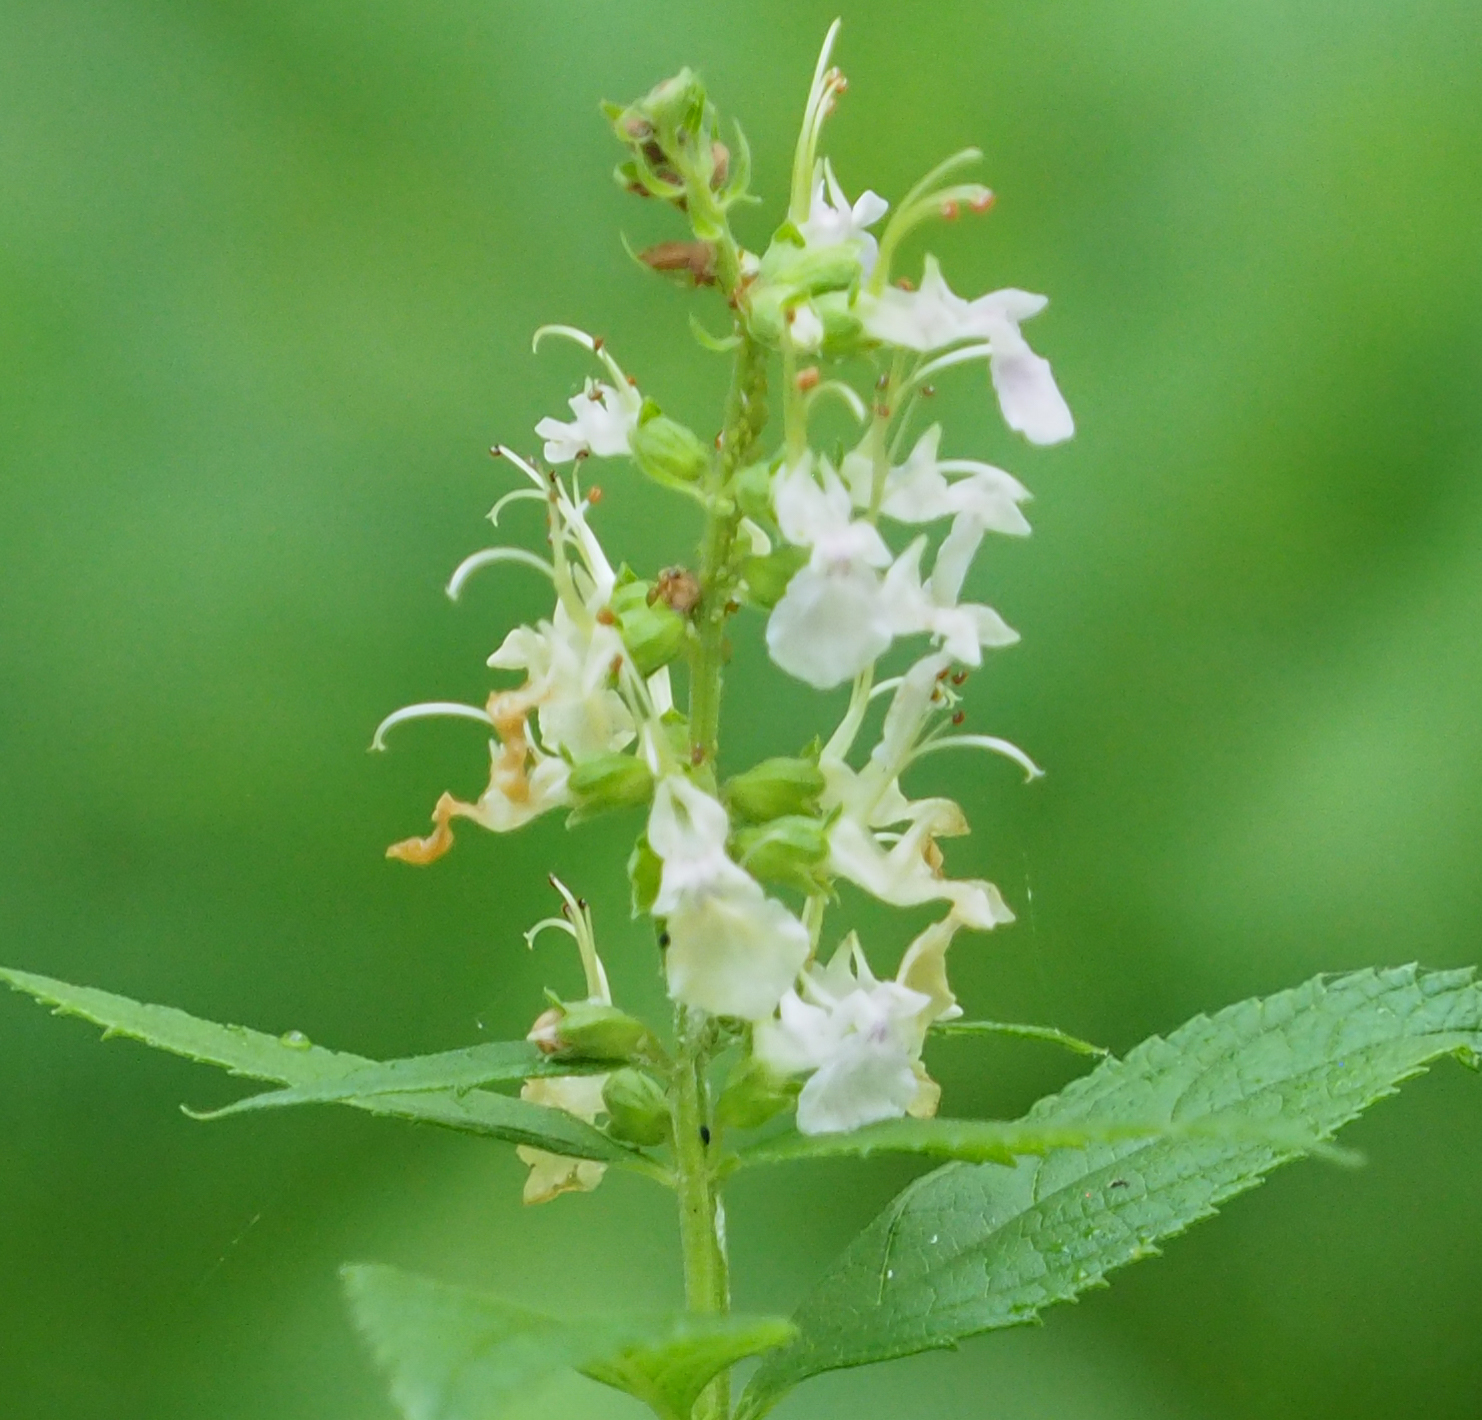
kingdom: Plantae
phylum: Tracheophyta
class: Magnoliopsida
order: Lamiales
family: Lamiaceae
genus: Teucrium
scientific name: Teucrium canadense
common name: American germander
